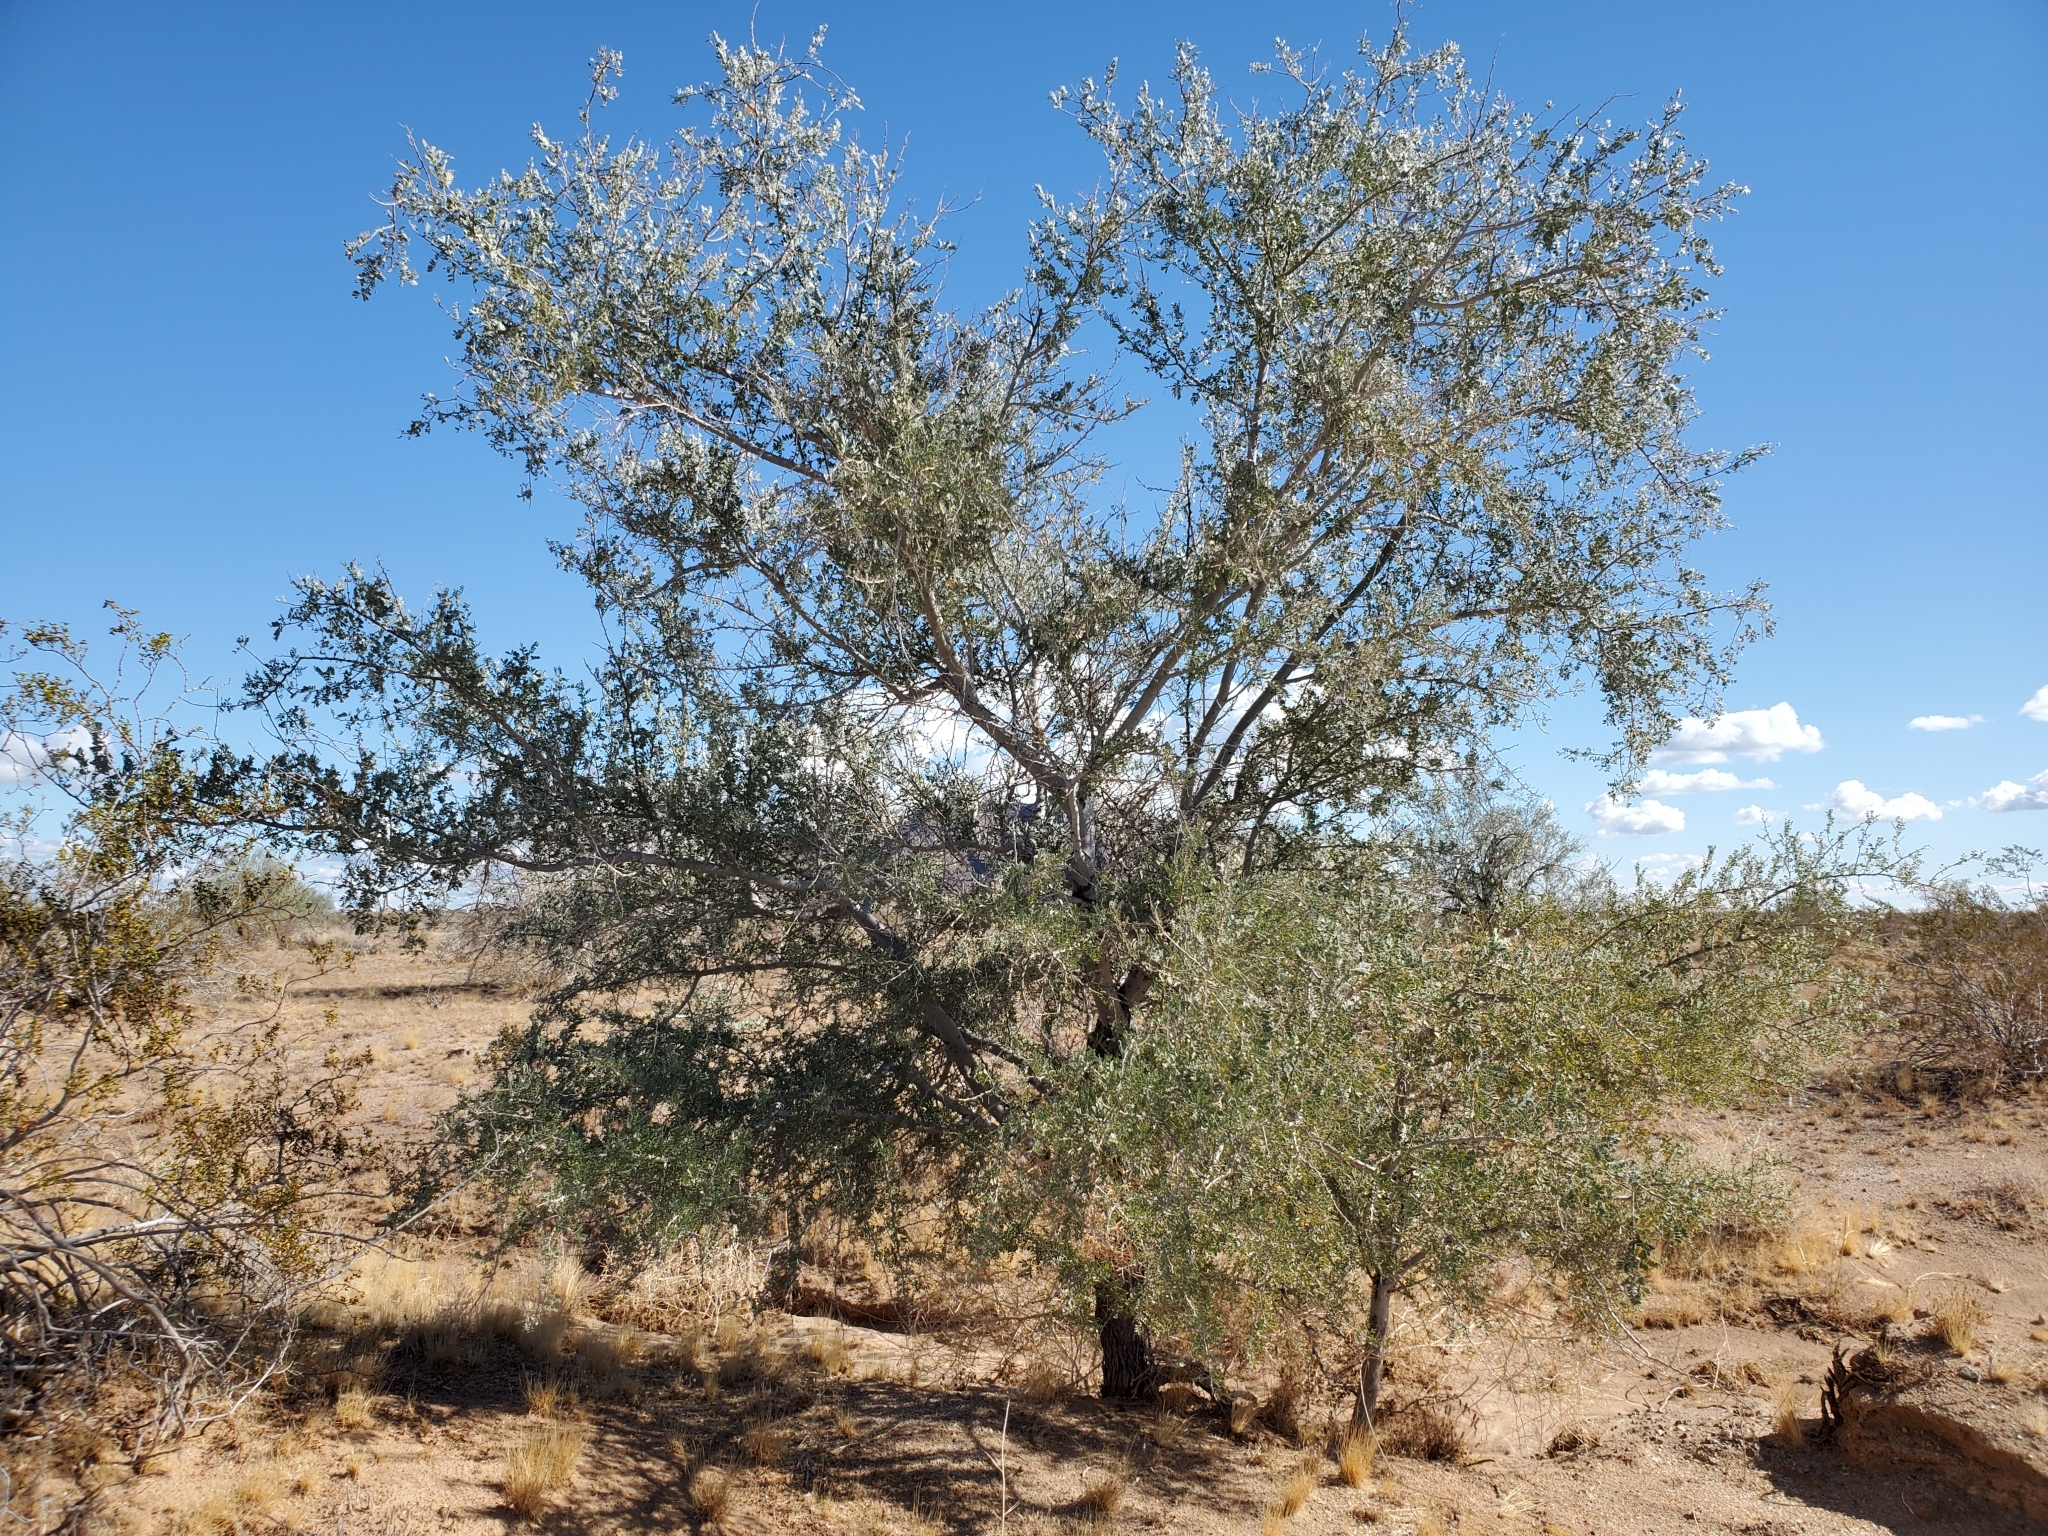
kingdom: Plantae
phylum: Tracheophyta
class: Magnoliopsida
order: Fabales
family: Fabaceae
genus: Olneya
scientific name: Olneya tesota
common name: Desert ironwood
